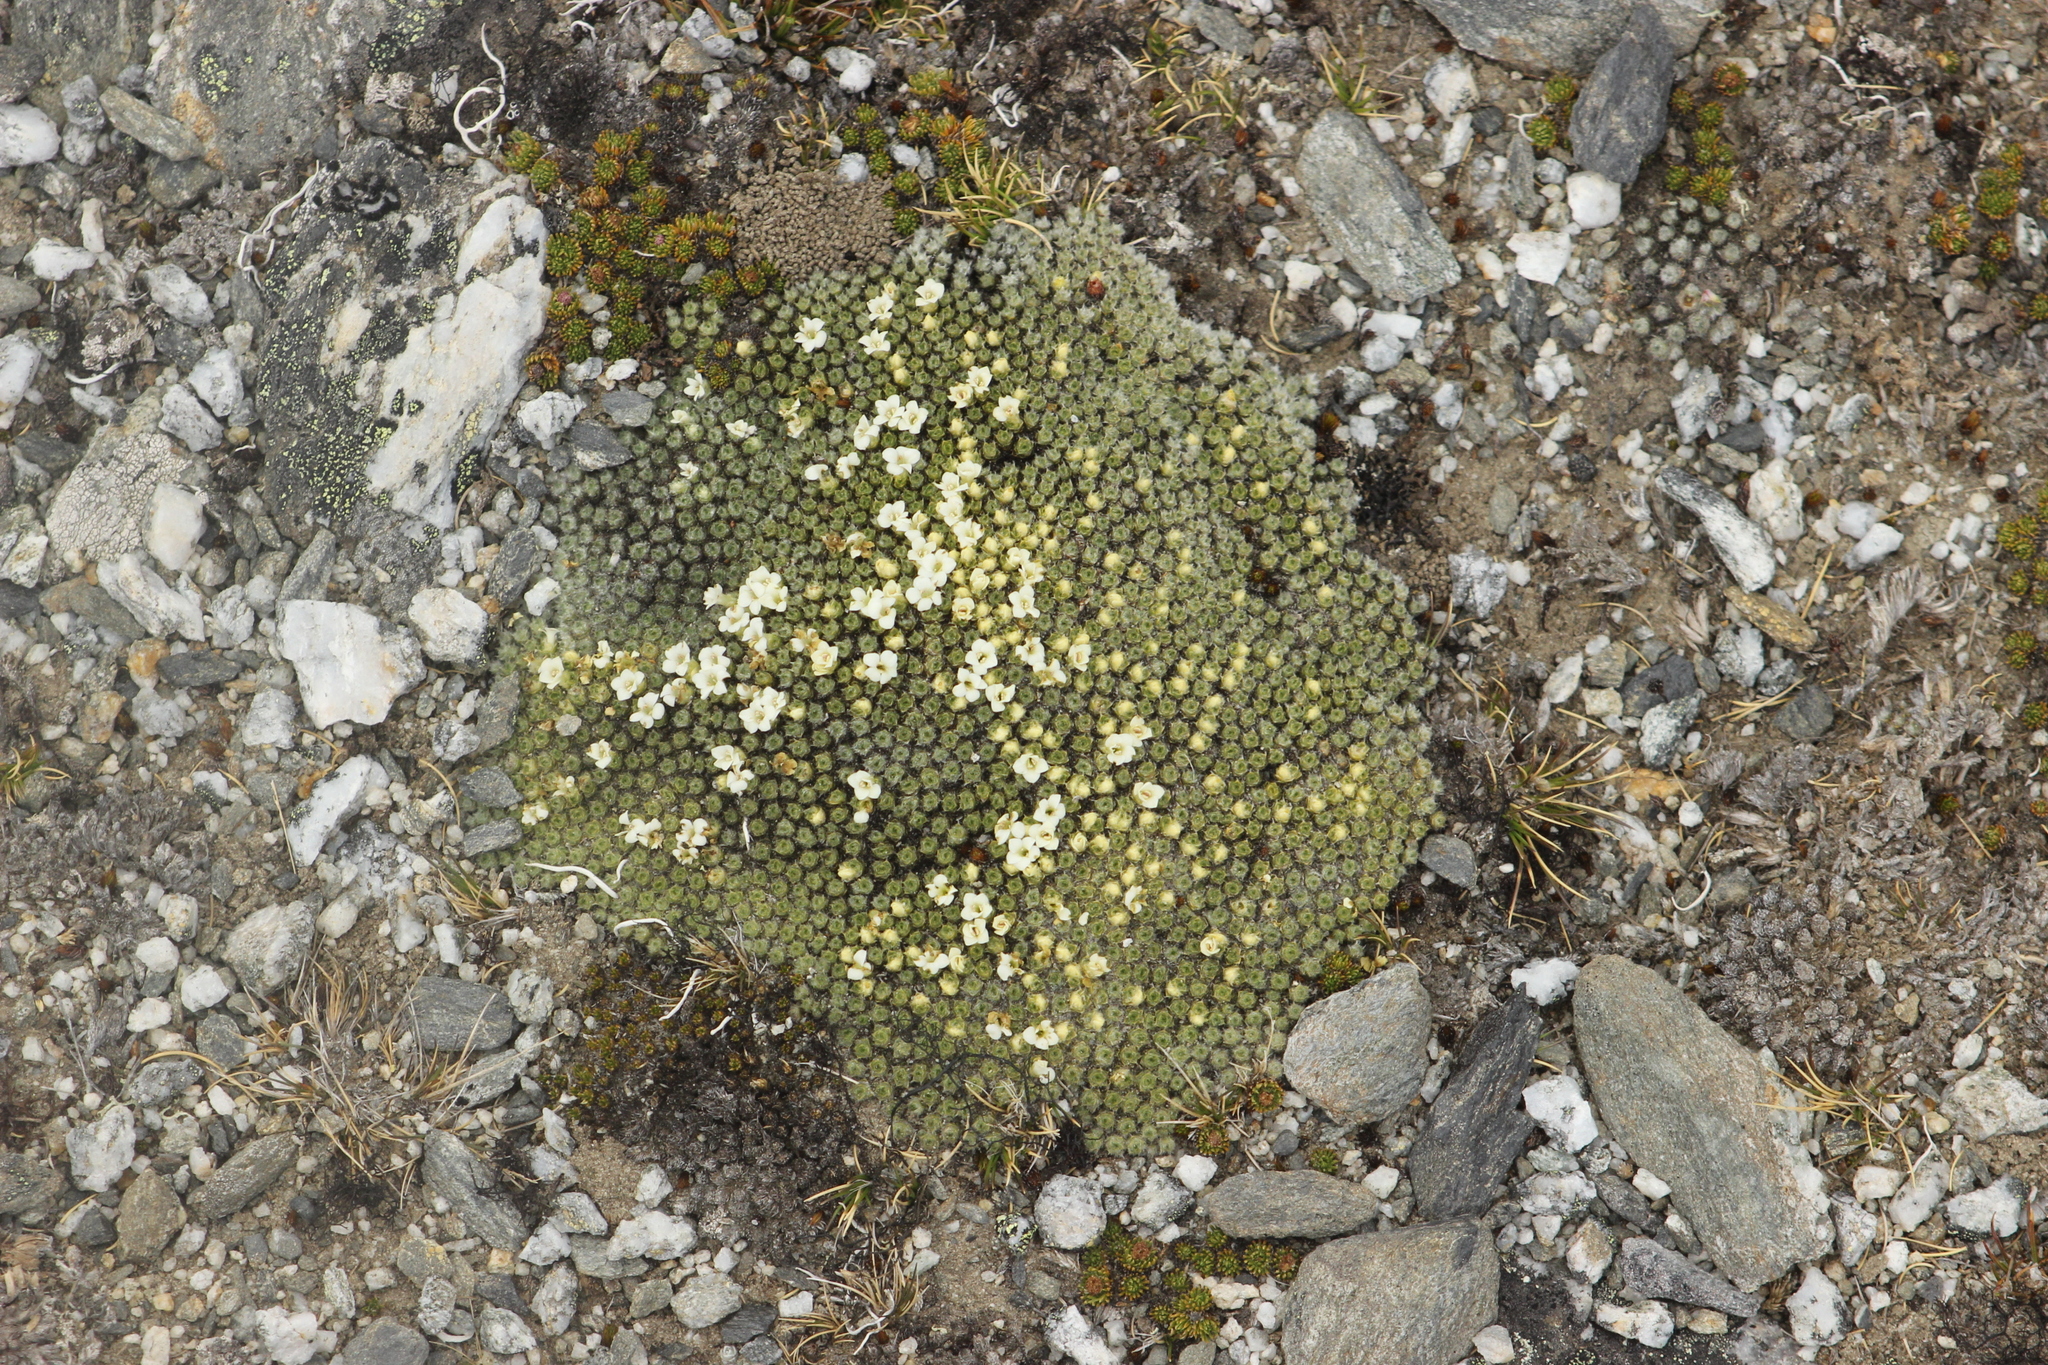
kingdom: Plantae
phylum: Tracheophyta
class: Magnoliopsida
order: Lamiales
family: Plantaginaceae
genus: Veronica
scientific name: Veronica thomsonii
